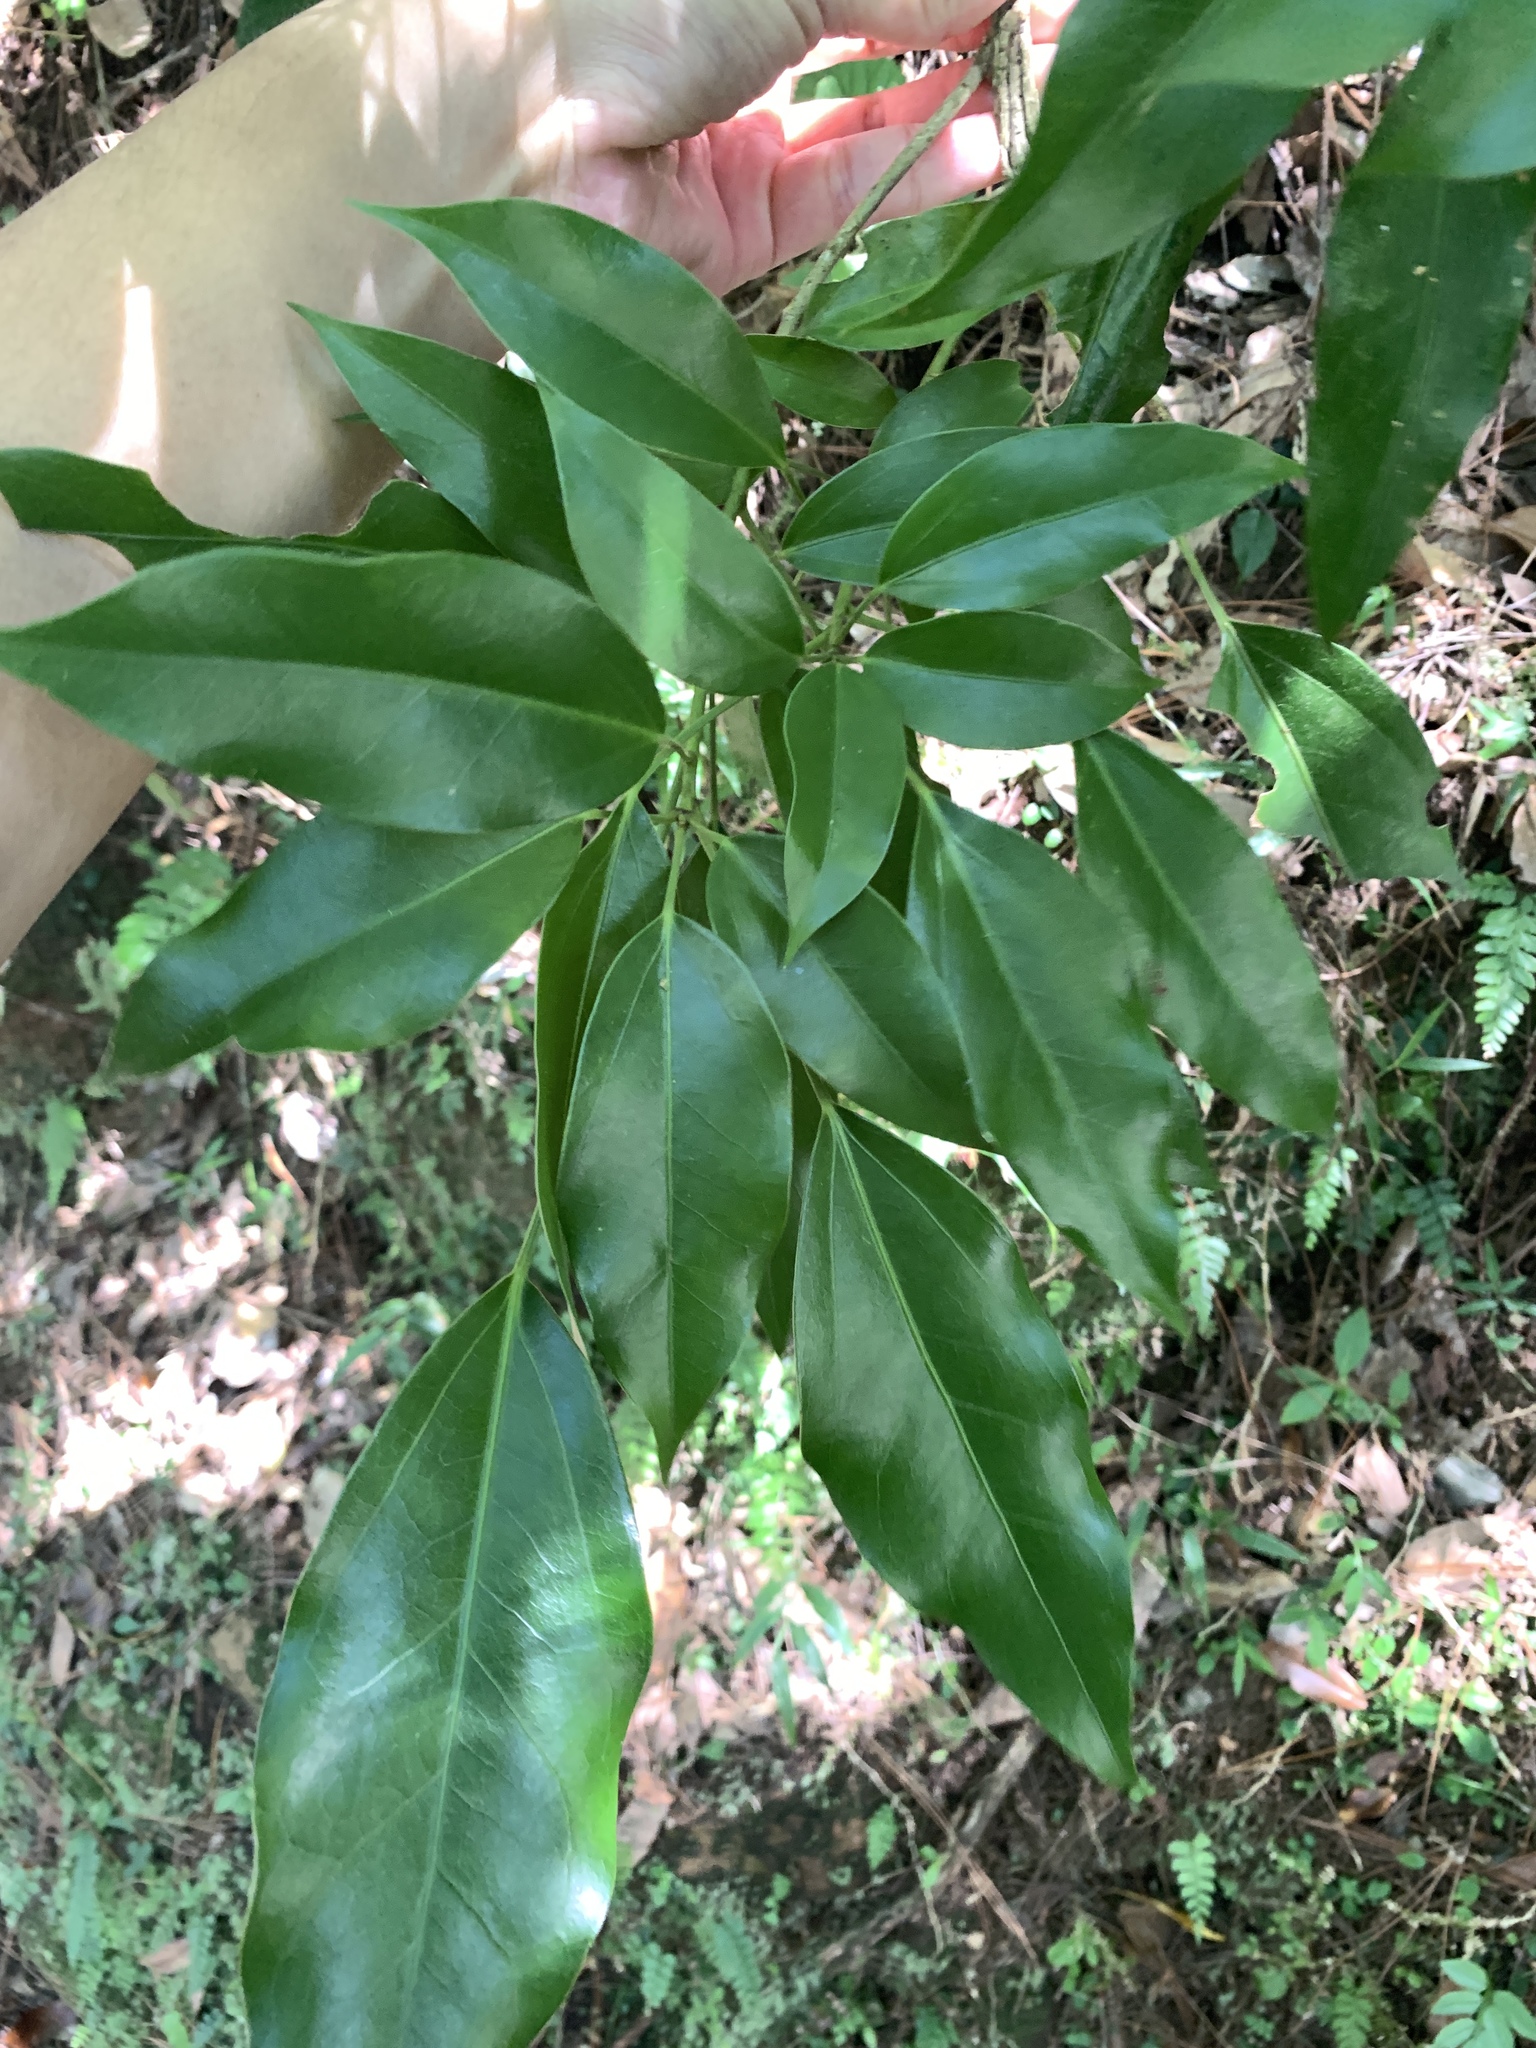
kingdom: Plantae
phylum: Tracheophyta
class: Magnoliopsida
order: Apiales
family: Araliaceae
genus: Dendropanax
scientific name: Dendropanax dentiger
